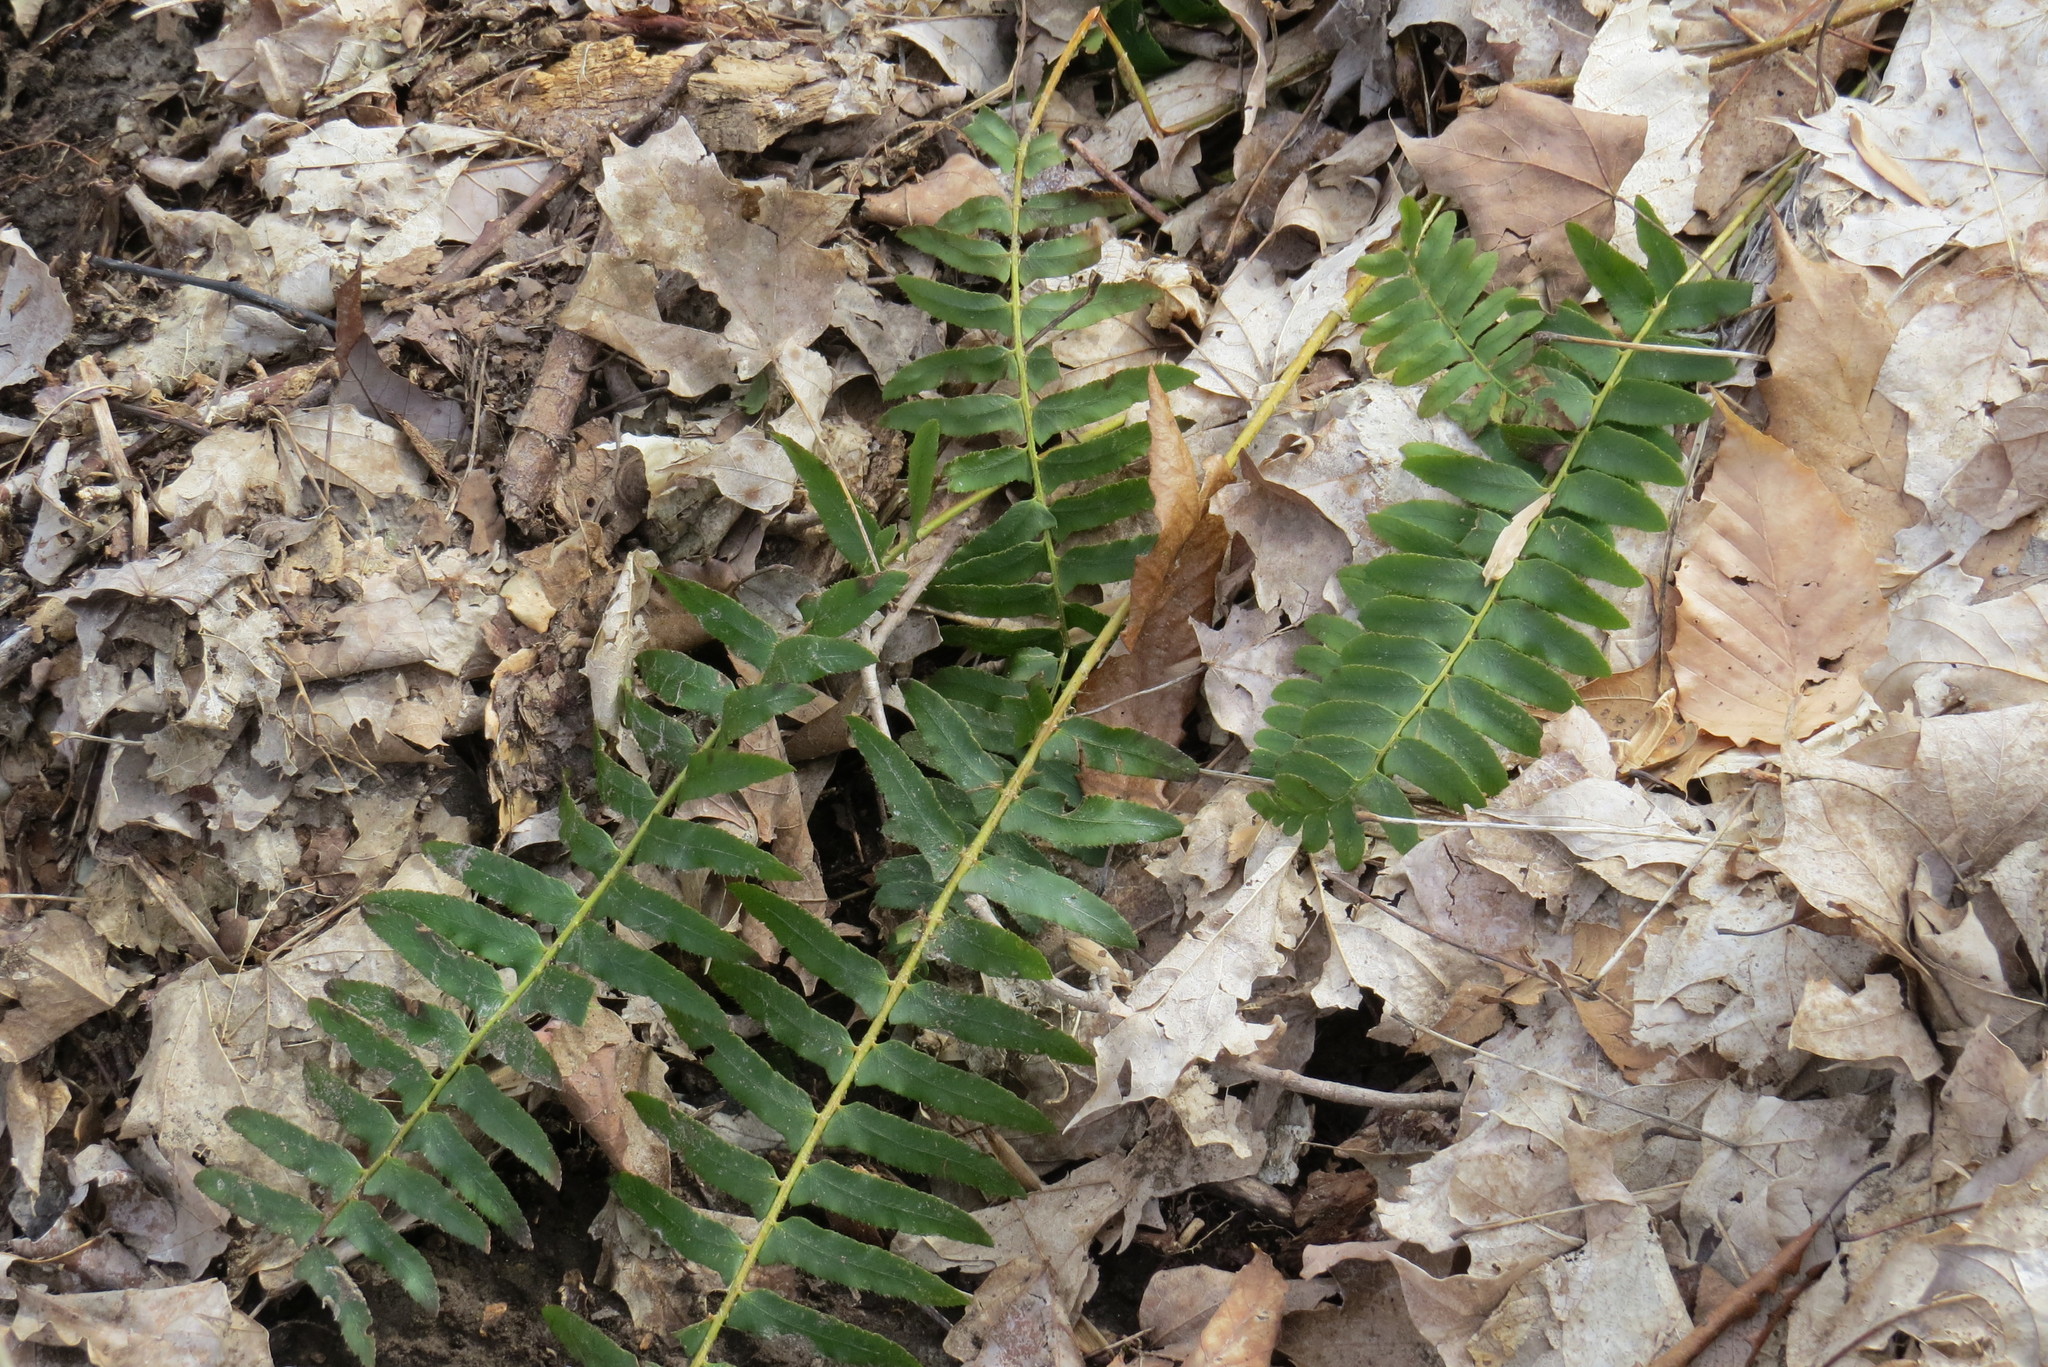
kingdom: Plantae
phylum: Tracheophyta
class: Polypodiopsida
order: Polypodiales
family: Dryopteridaceae
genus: Polystichum
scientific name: Polystichum acrostichoides
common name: Christmas fern
